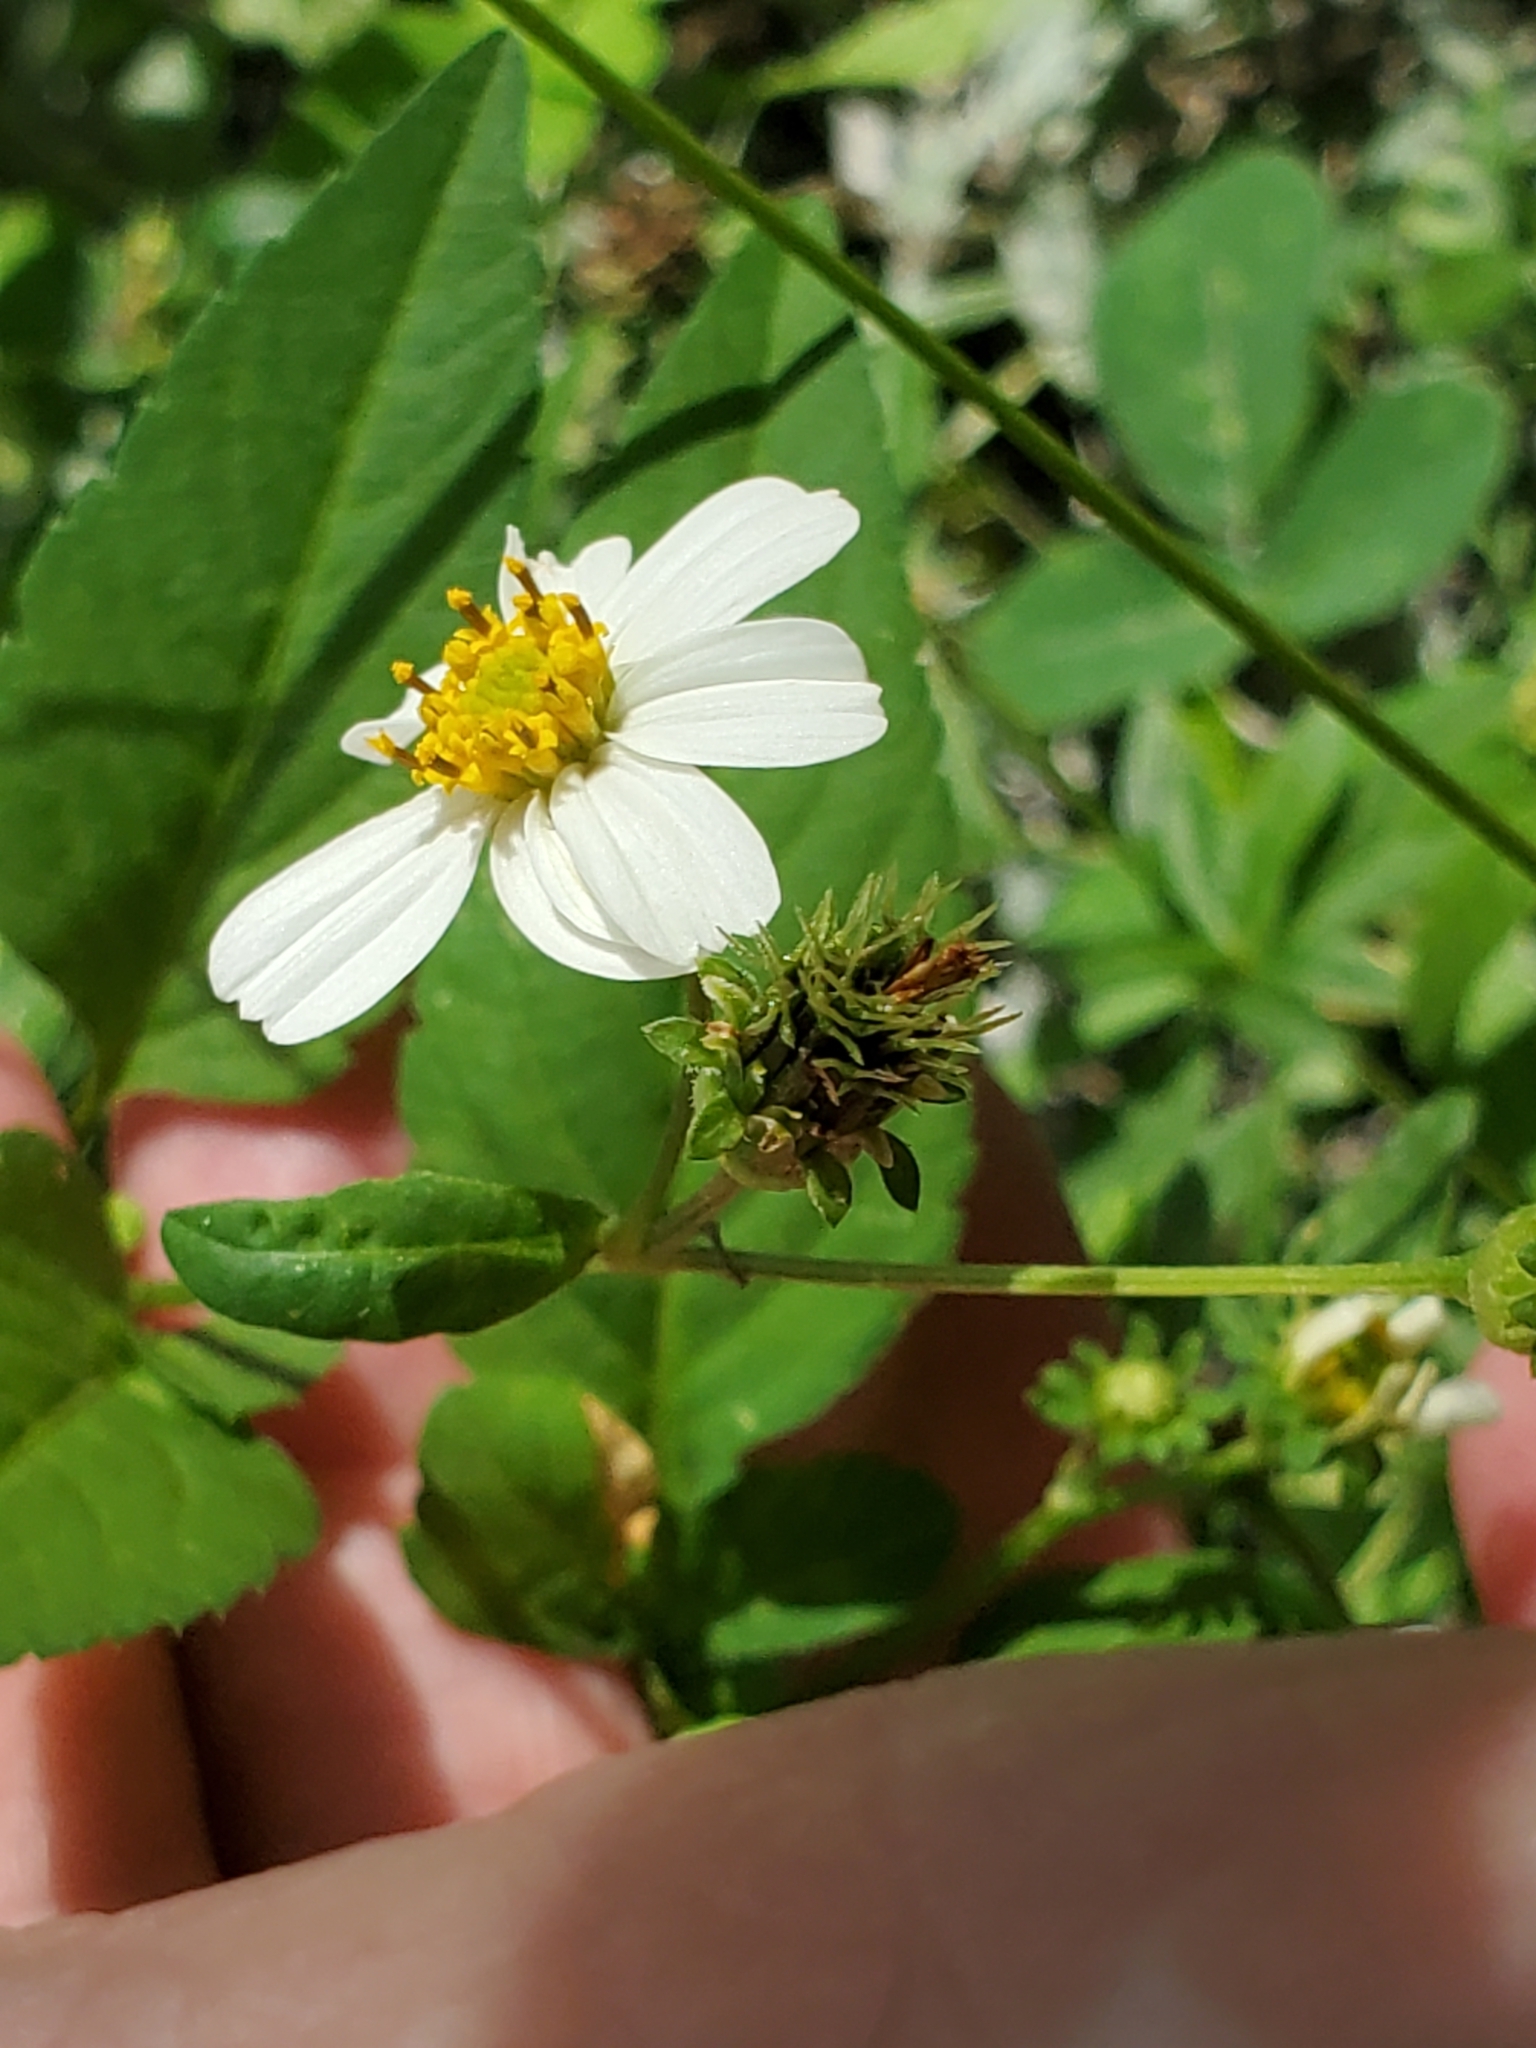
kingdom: Plantae
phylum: Tracheophyta
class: Magnoliopsida
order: Asterales
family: Asteraceae
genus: Bidens
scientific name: Bidens alba
